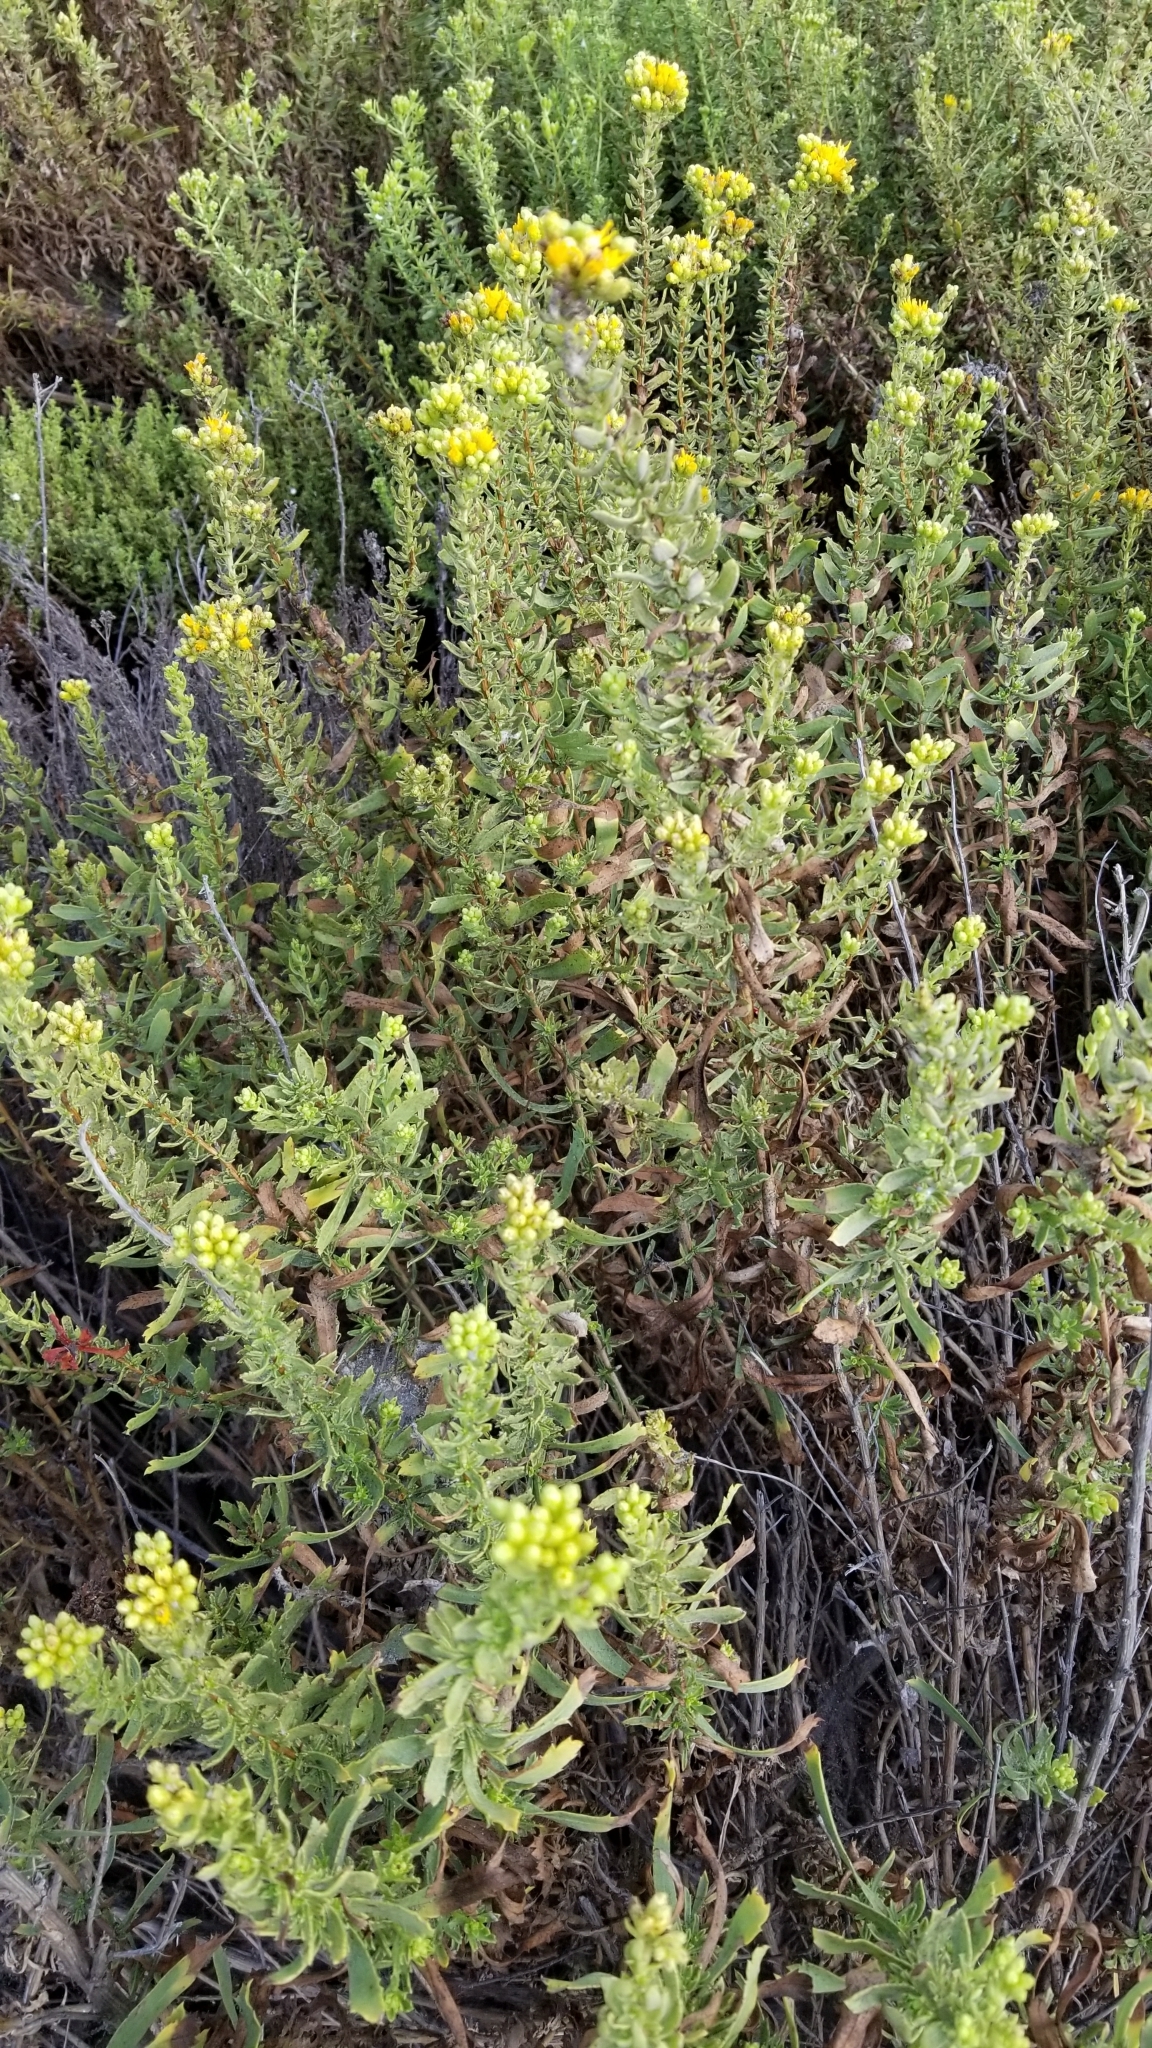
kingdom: Plantae
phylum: Tracheophyta
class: Magnoliopsida
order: Asterales
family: Asteraceae
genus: Isocoma
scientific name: Isocoma menziesii
